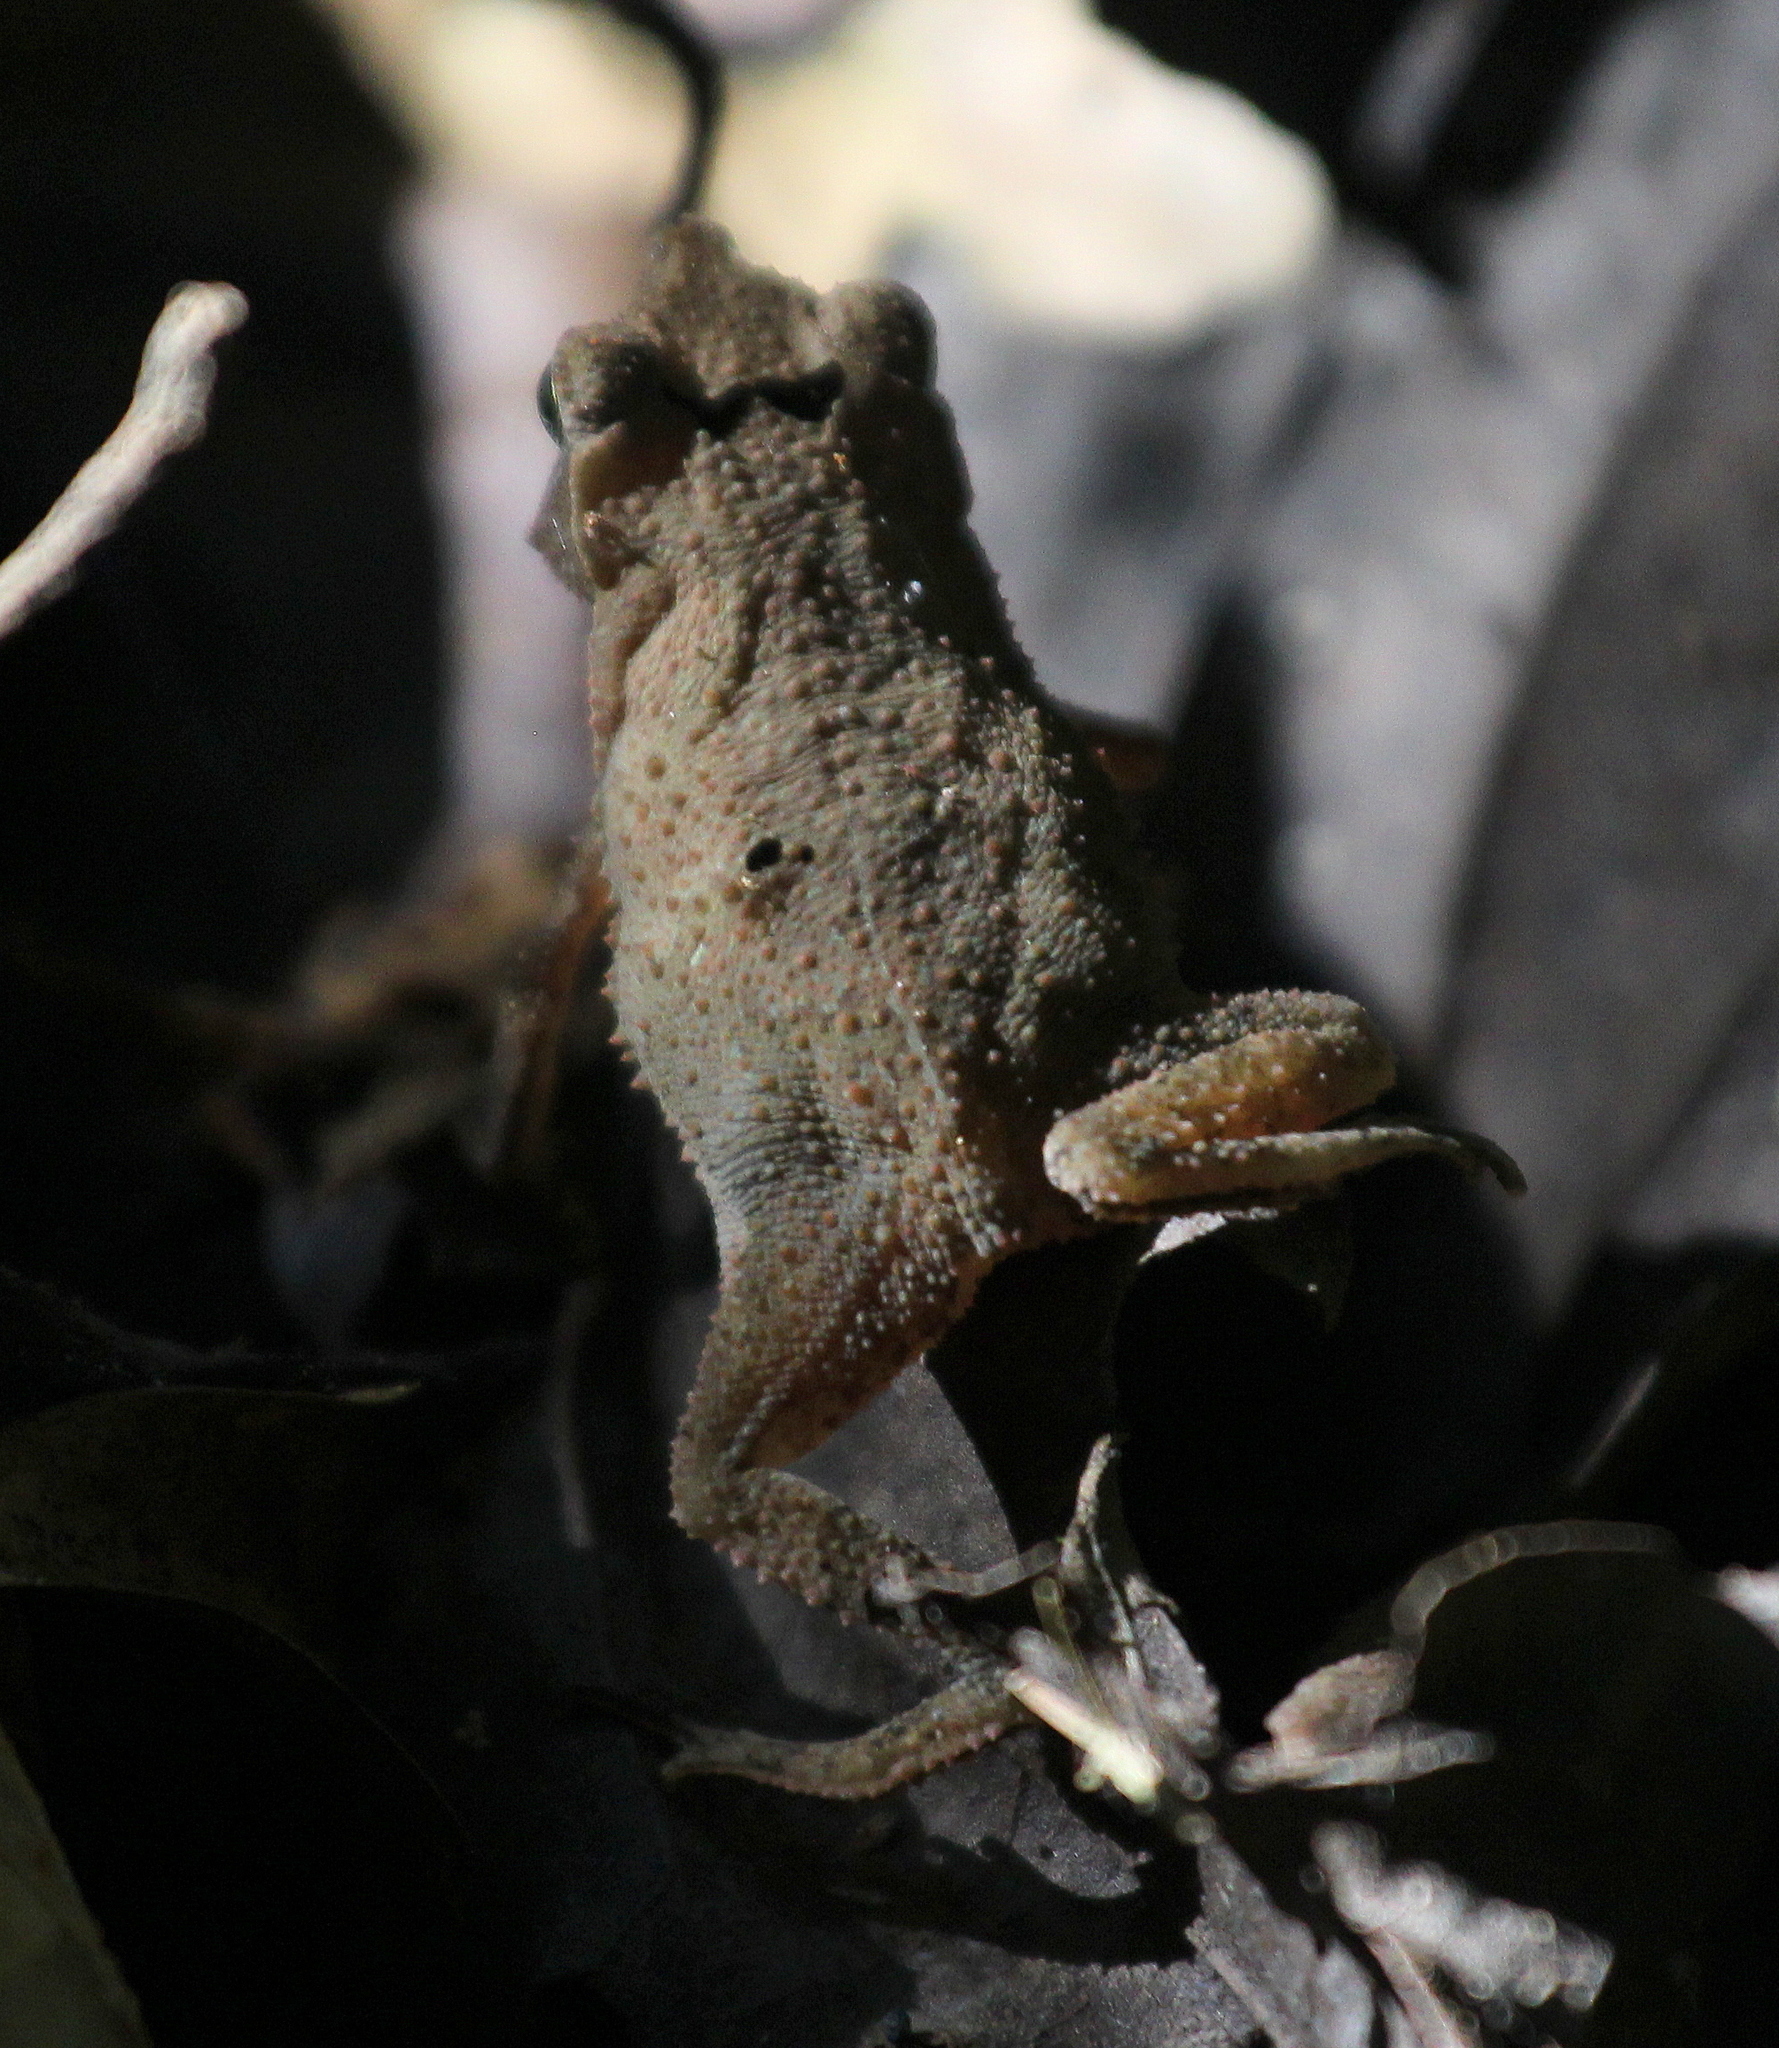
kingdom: Animalia
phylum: Chordata
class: Amphibia
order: Anura
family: Bufonidae
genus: Rhinella
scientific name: Rhinella margaritifera
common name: Mitred toad
